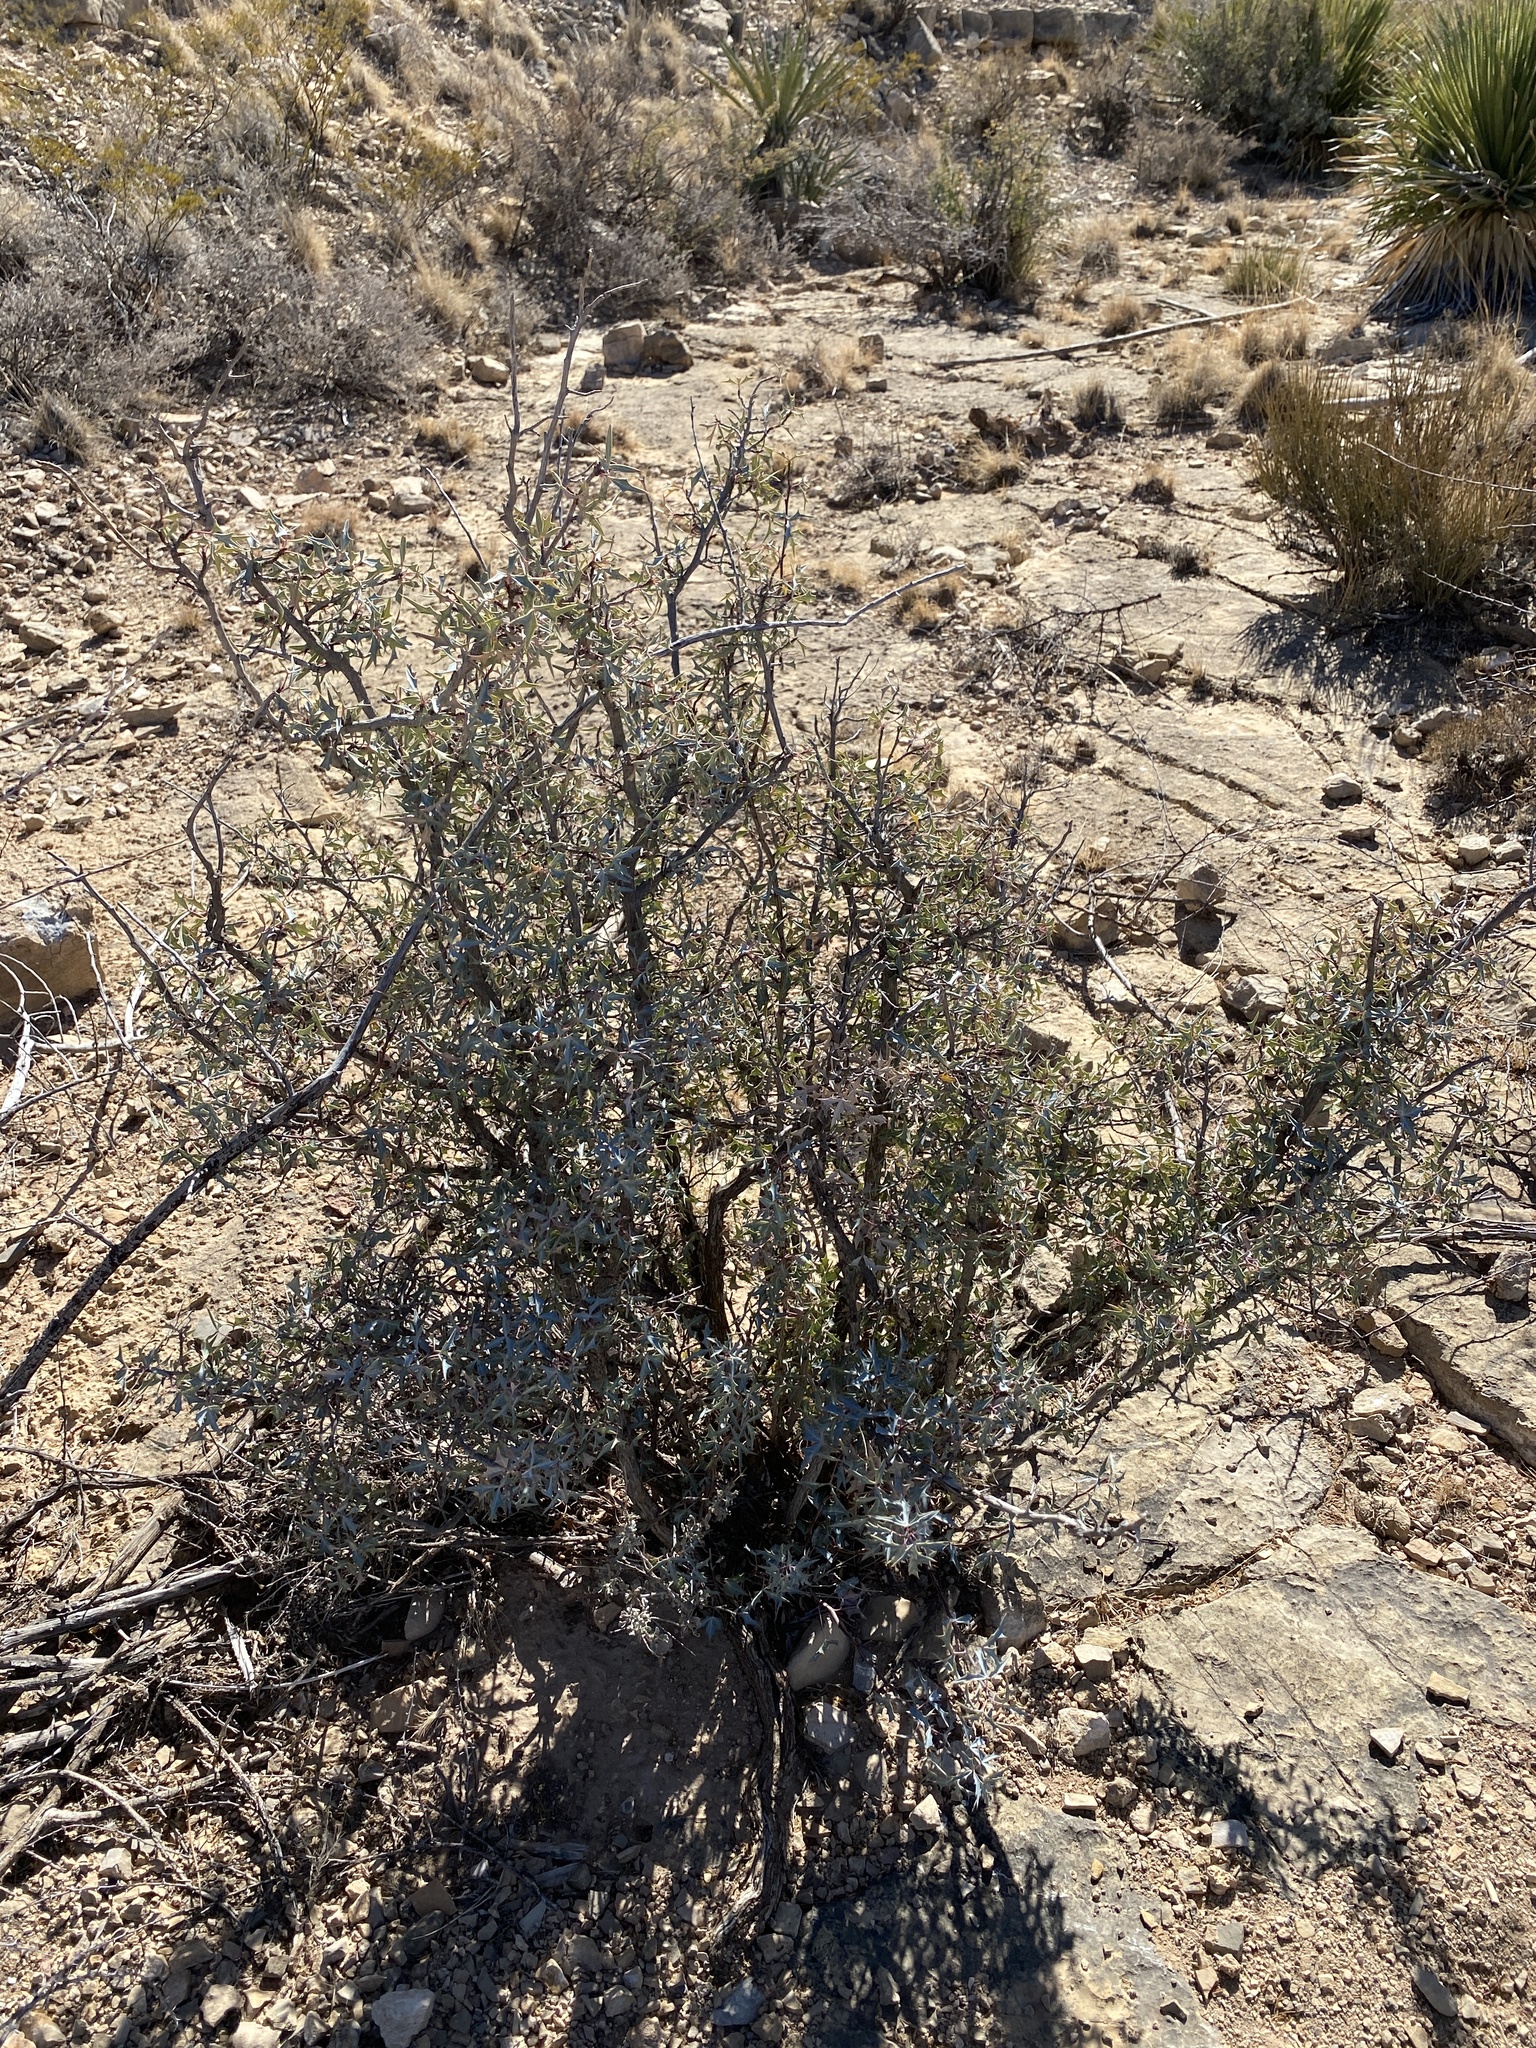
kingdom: Plantae
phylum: Tracheophyta
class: Magnoliopsida
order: Ranunculales
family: Berberidaceae
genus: Alloberberis
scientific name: Alloberberis trifoliolata
